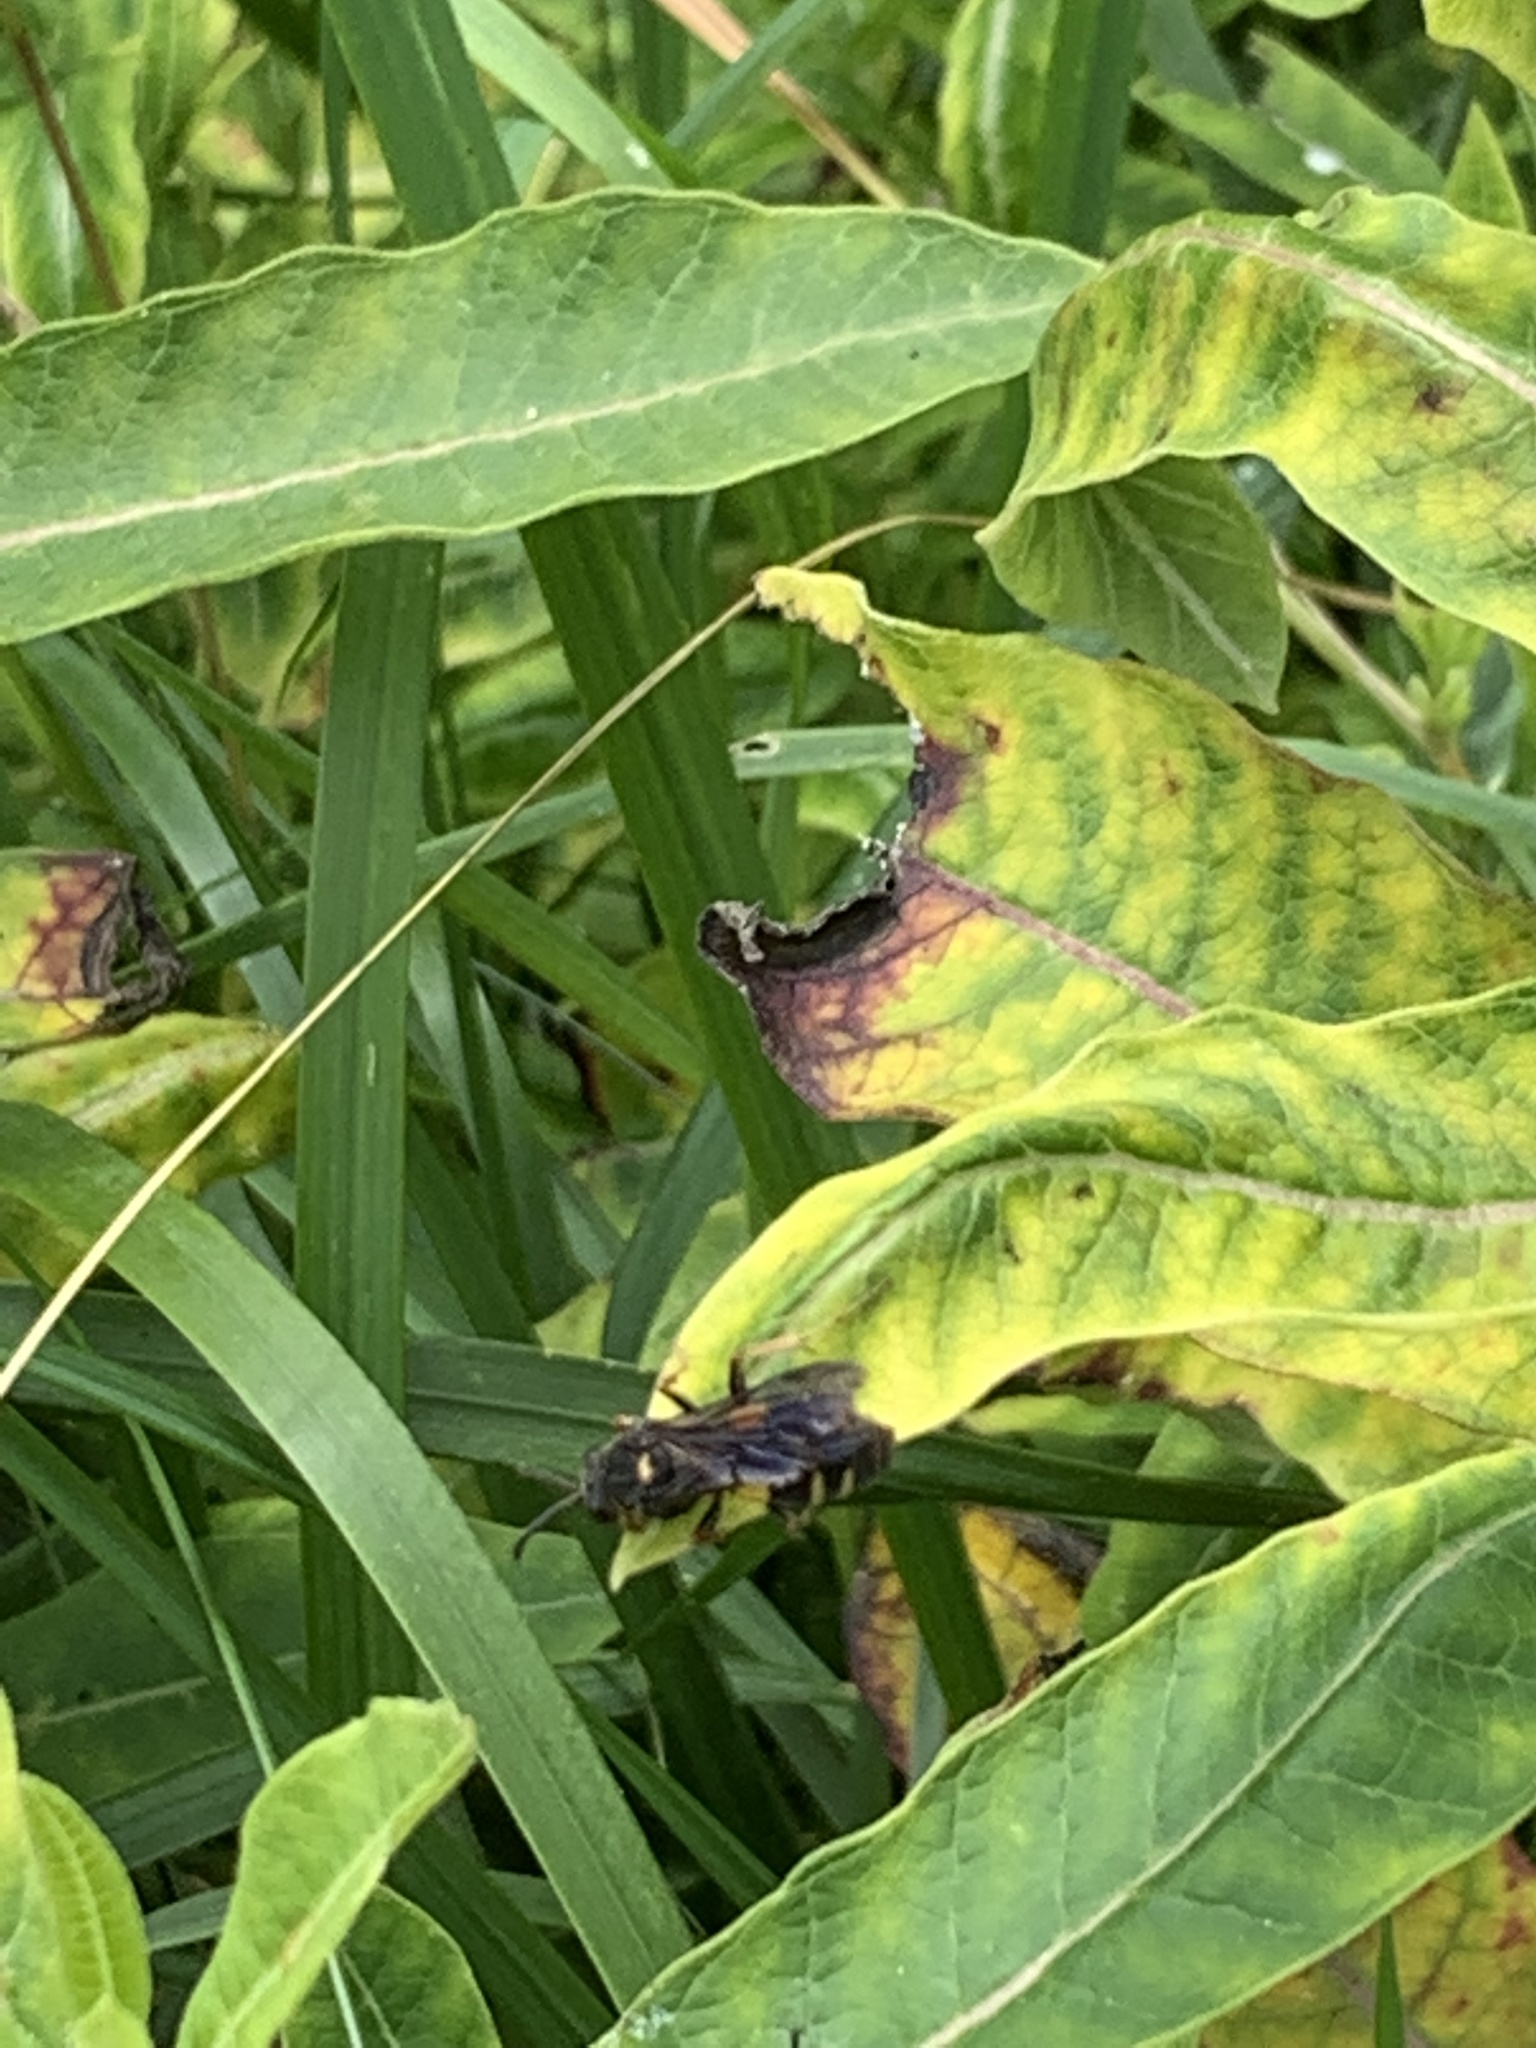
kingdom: Animalia
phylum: Arthropoda
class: Insecta
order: Hymenoptera
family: Crabronidae
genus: Nysson
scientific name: Nysson plagiatus
